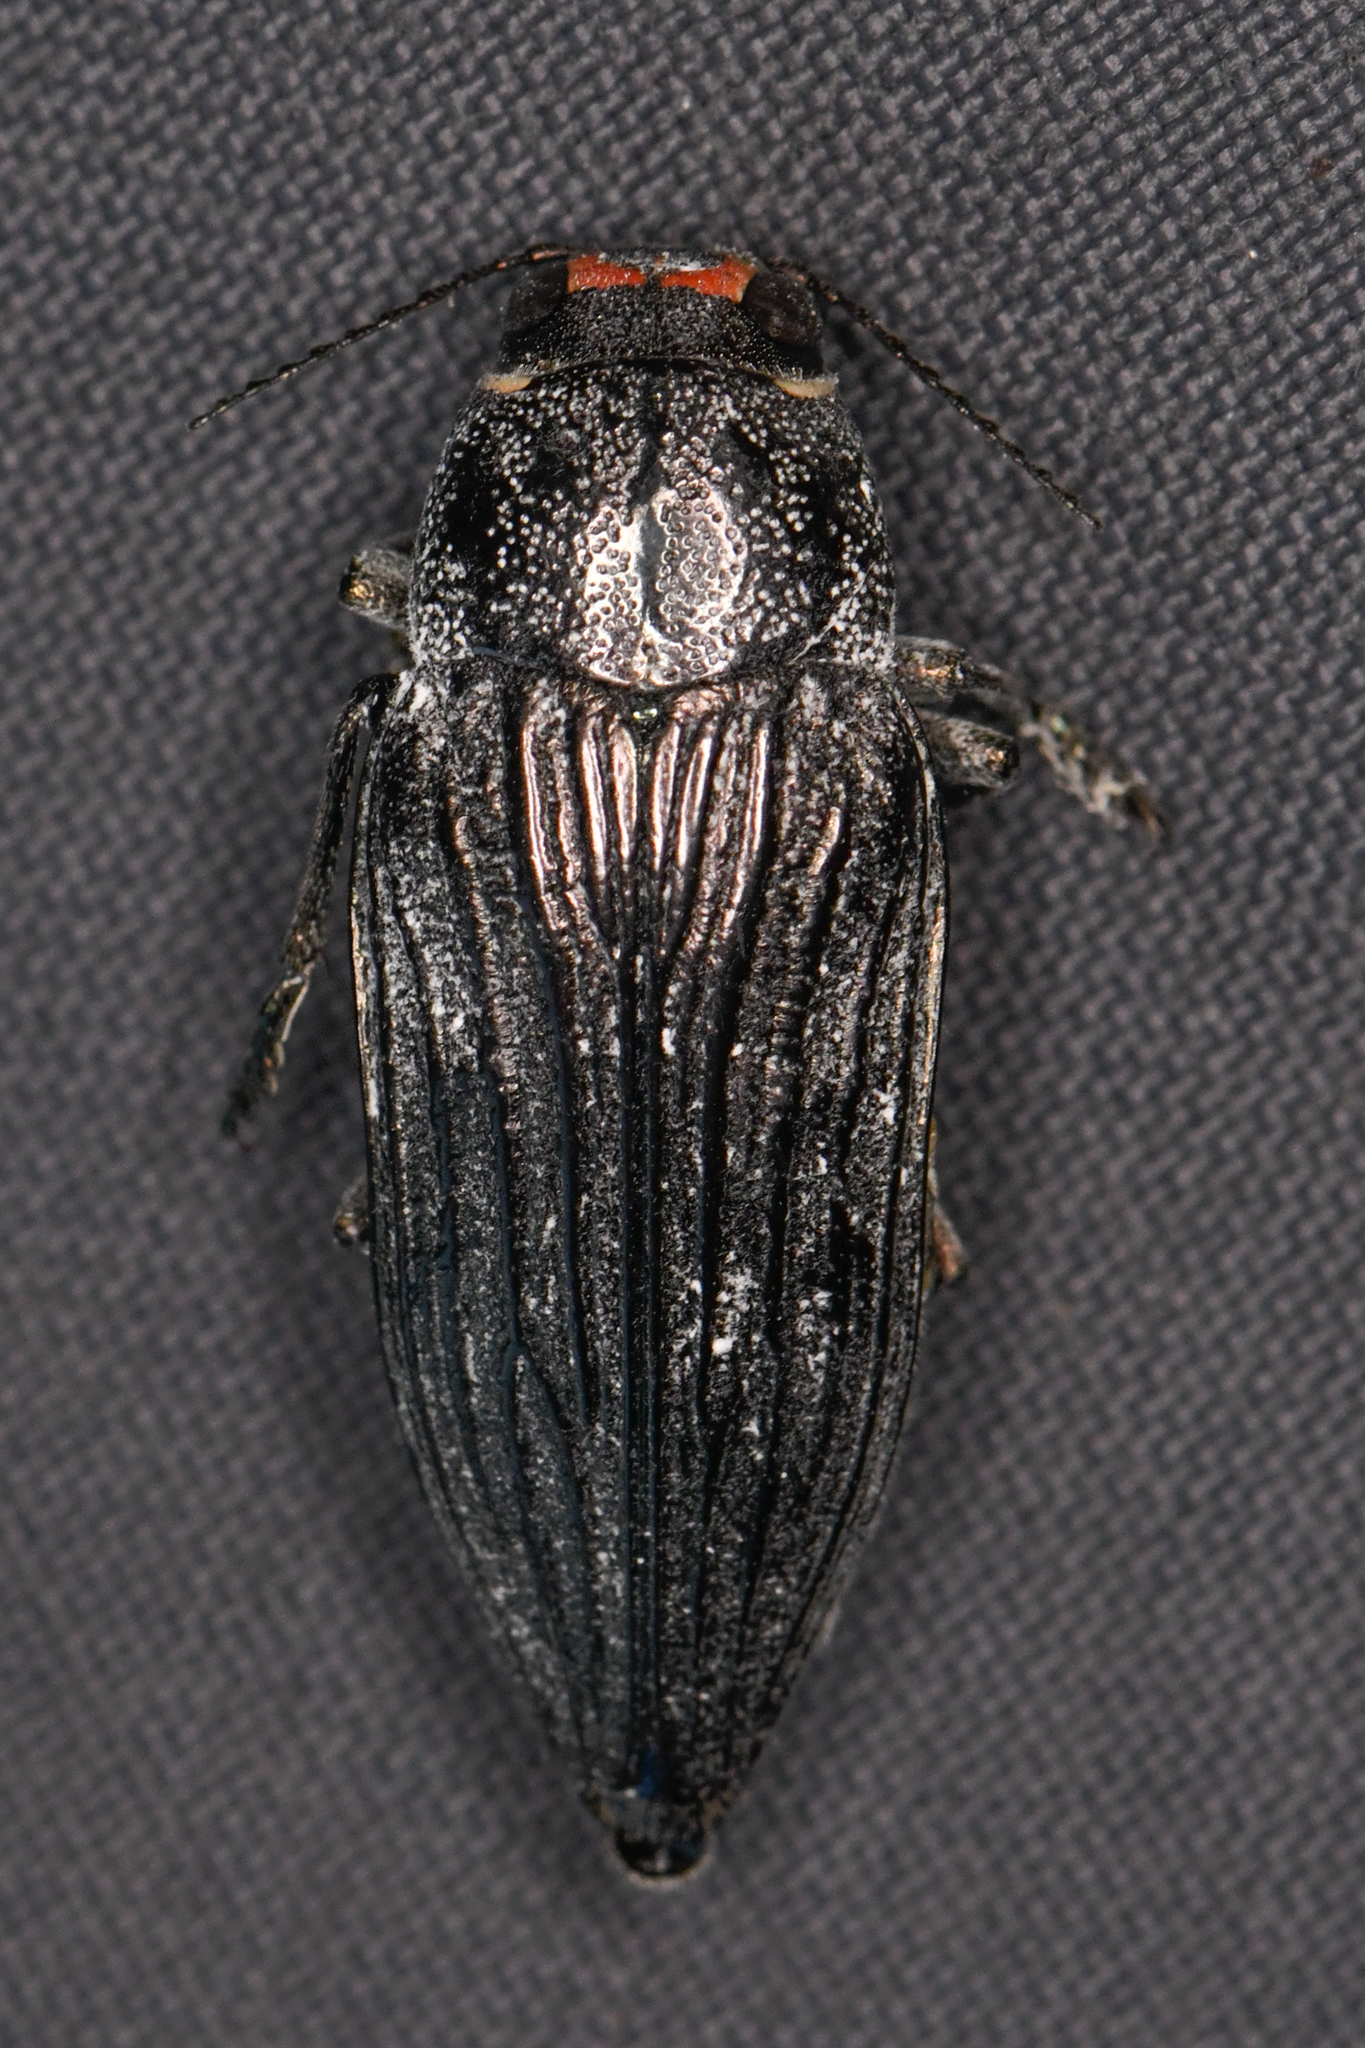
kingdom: Animalia
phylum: Arthropoda
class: Insecta
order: Coleoptera
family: Buprestidae
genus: Buprestis
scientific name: Buprestis lyrata
